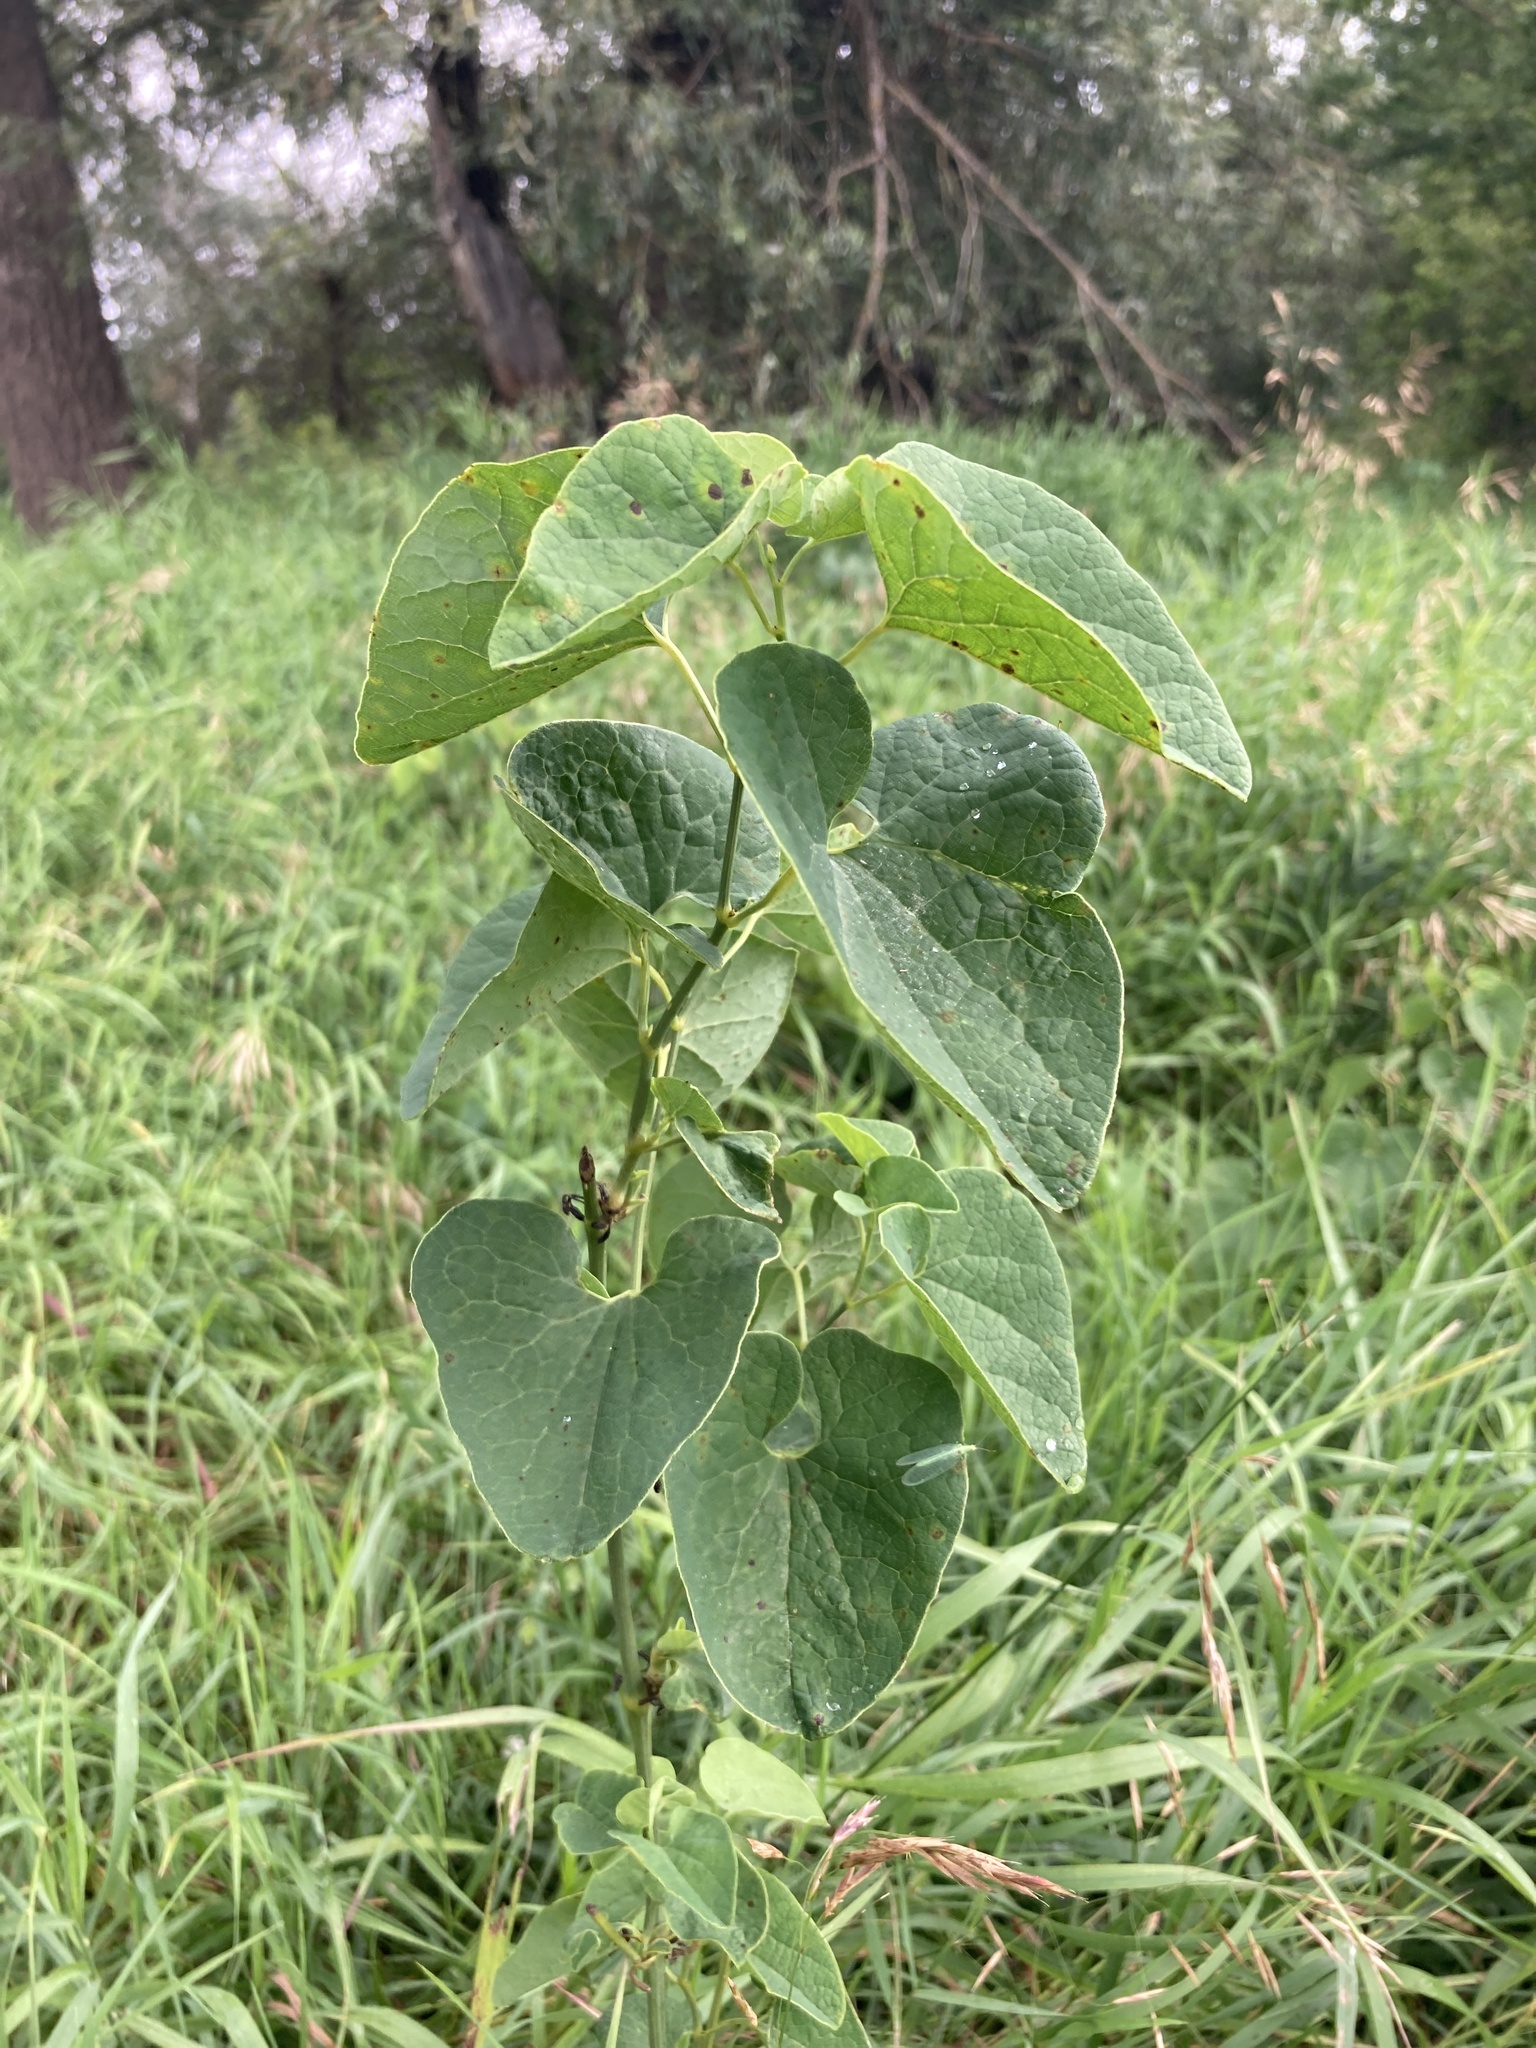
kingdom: Plantae
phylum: Tracheophyta
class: Magnoliopsida
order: Piperales
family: Aristolochiaceae
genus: Aristolochia
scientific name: Aristolochia clematitis
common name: Birthwort
